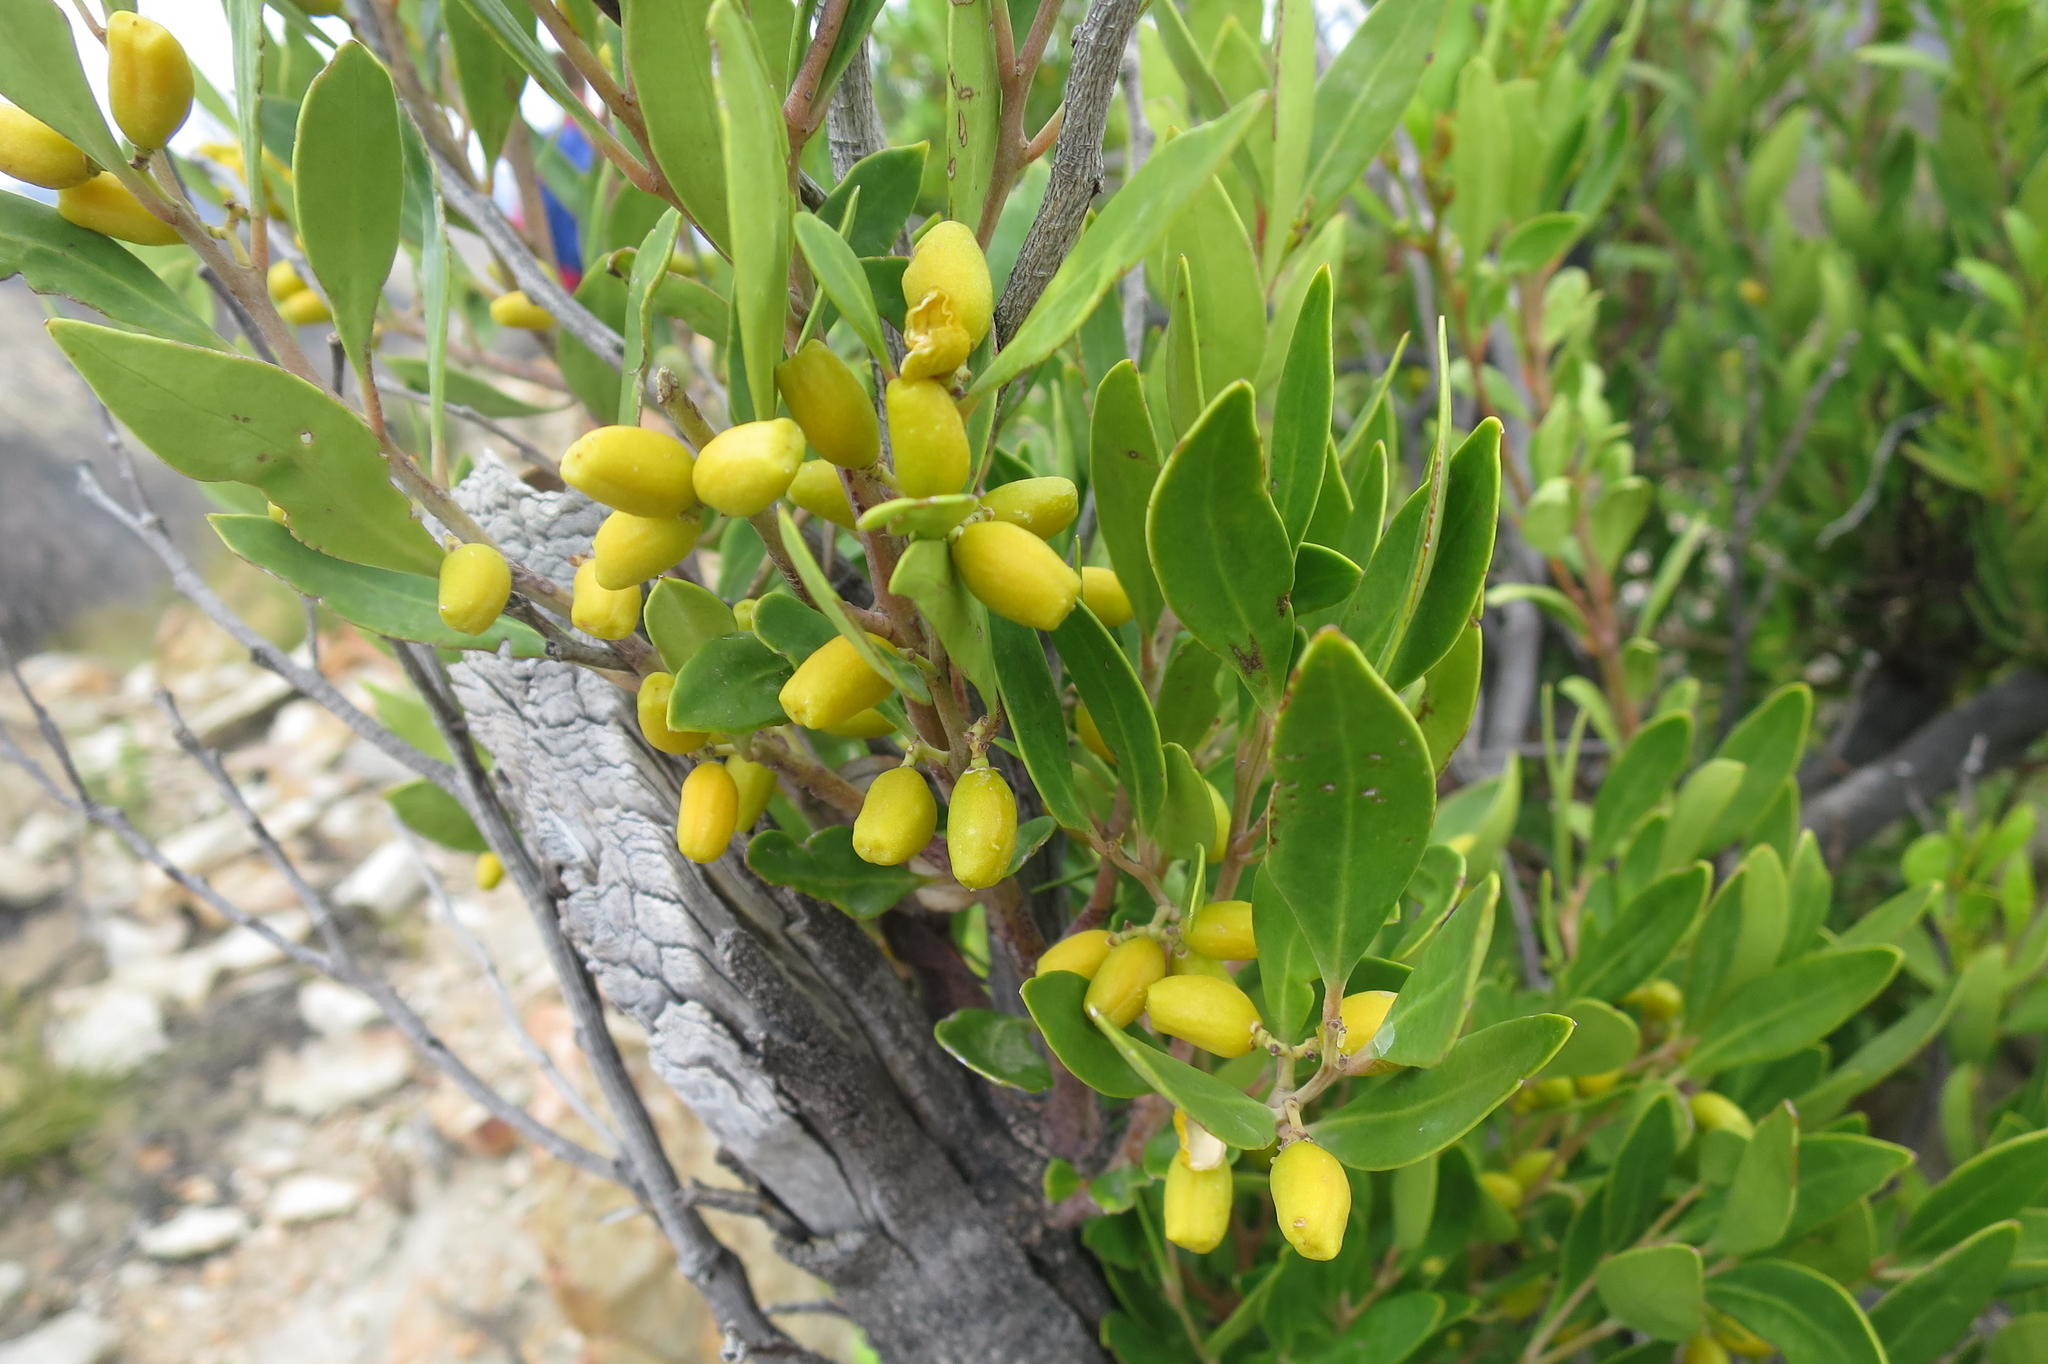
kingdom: Plantae
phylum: Tracheophyta
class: Magnoliopsida
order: Celastrales
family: Celastraceae
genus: Gymnosporia
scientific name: Gymnosporia laurina
